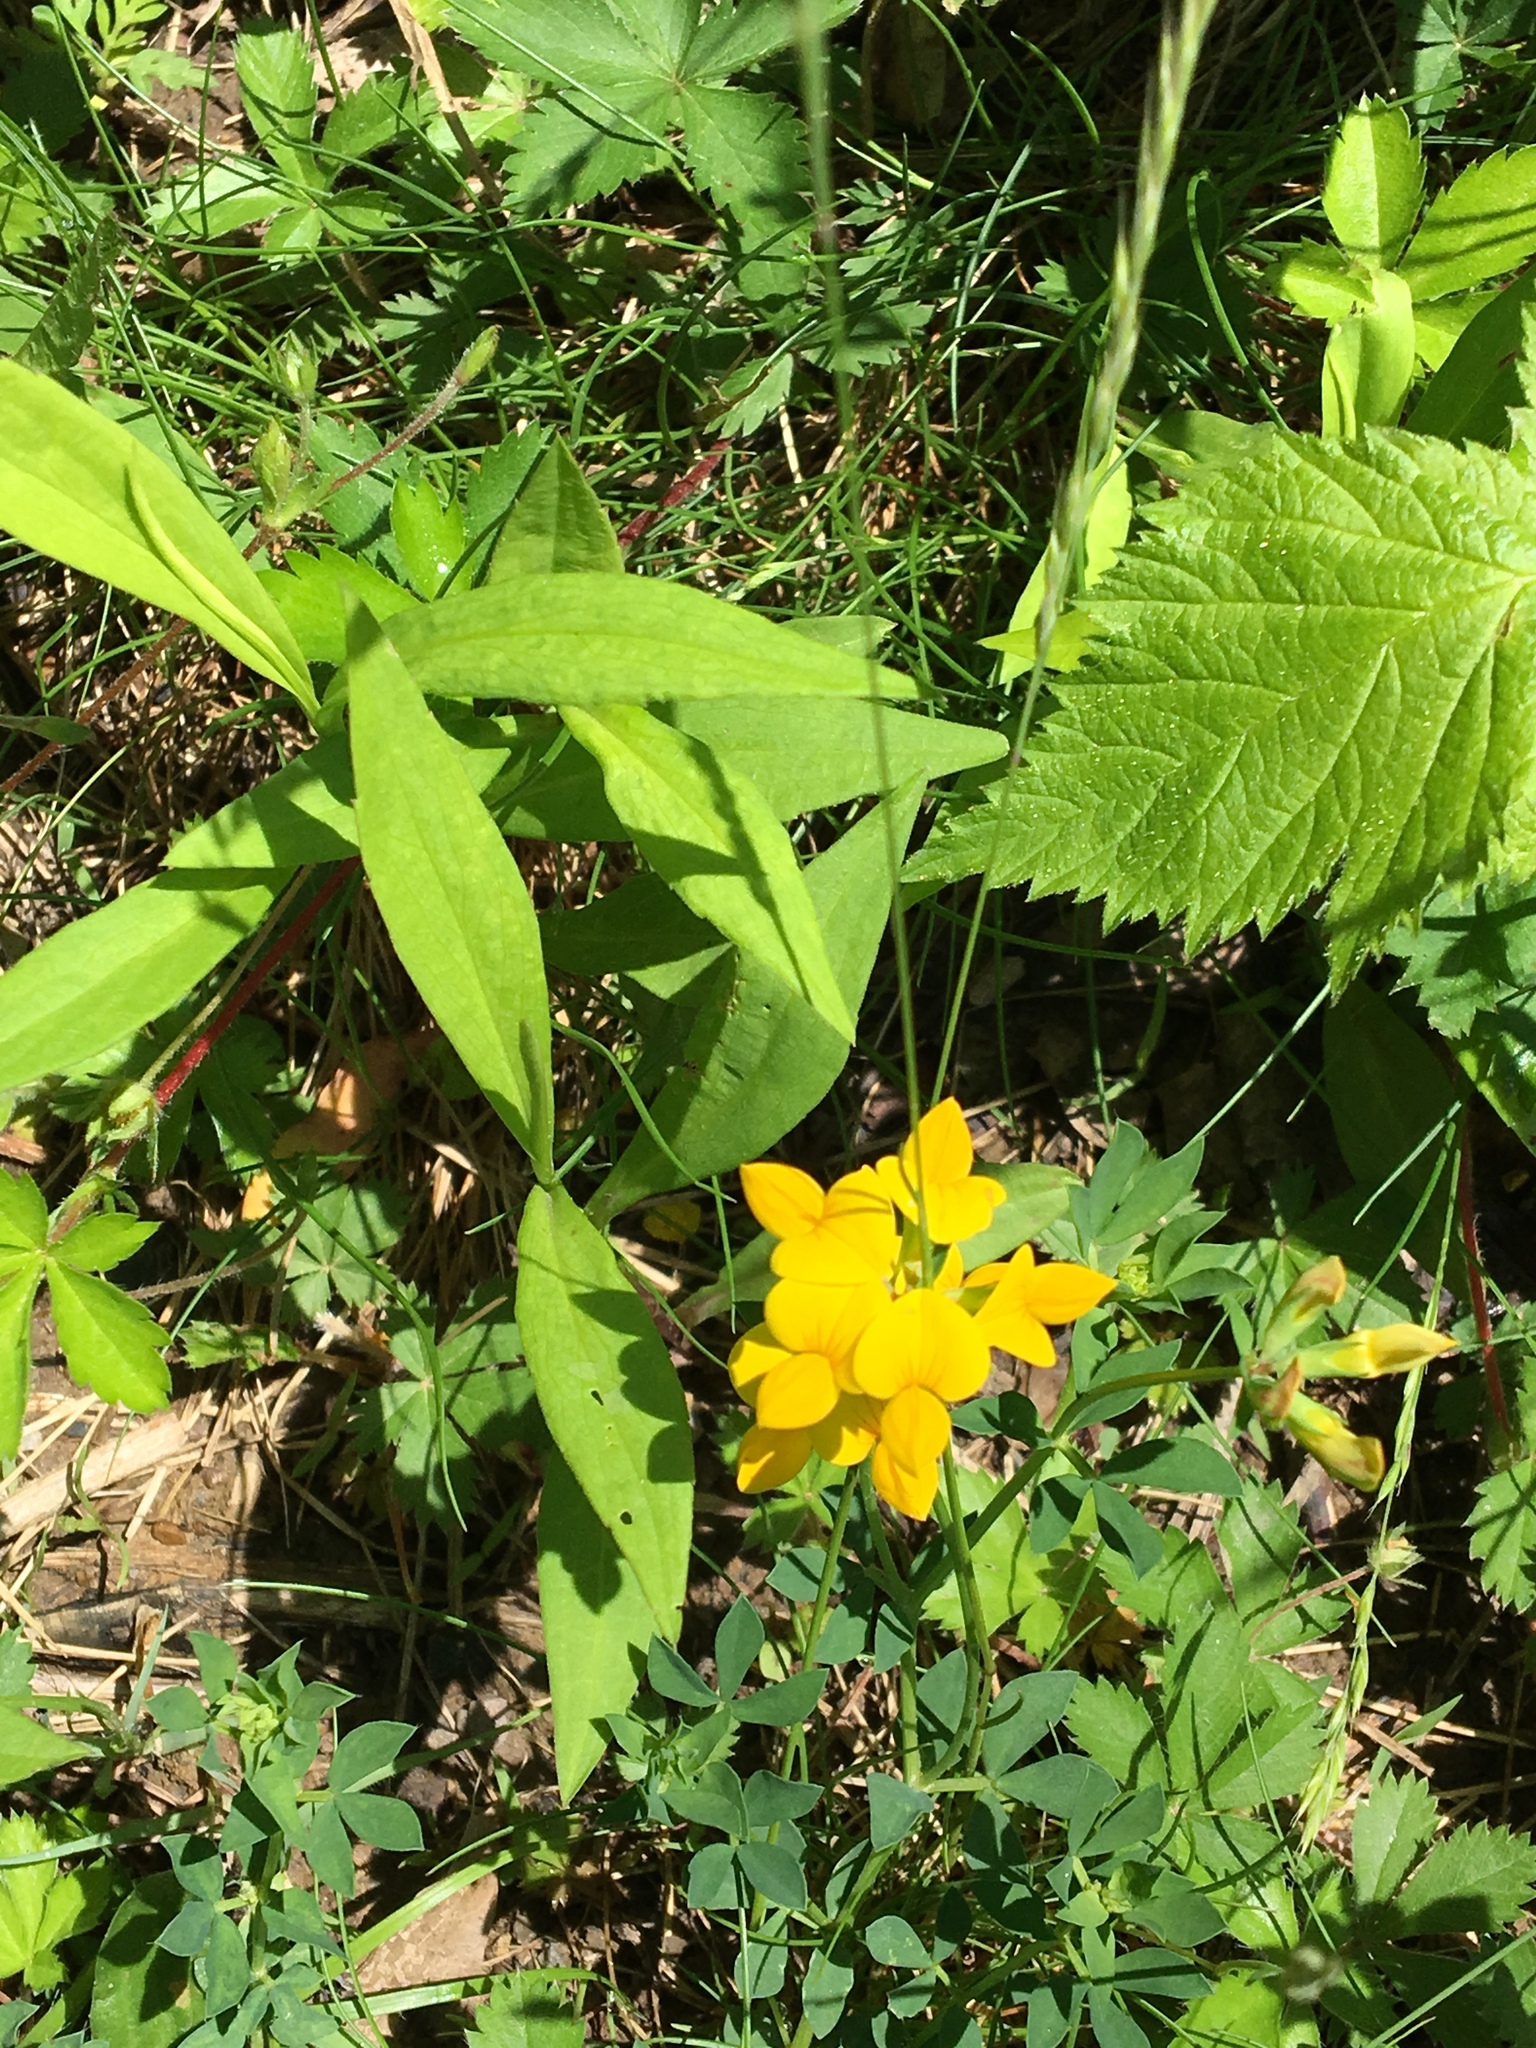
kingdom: Plantae
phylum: Tracheophyta
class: Magnoliopsida
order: Fabales
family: Fabaceae
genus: Lotus
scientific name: Lotus corniculatus
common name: Common bird's-foot-trefoil
